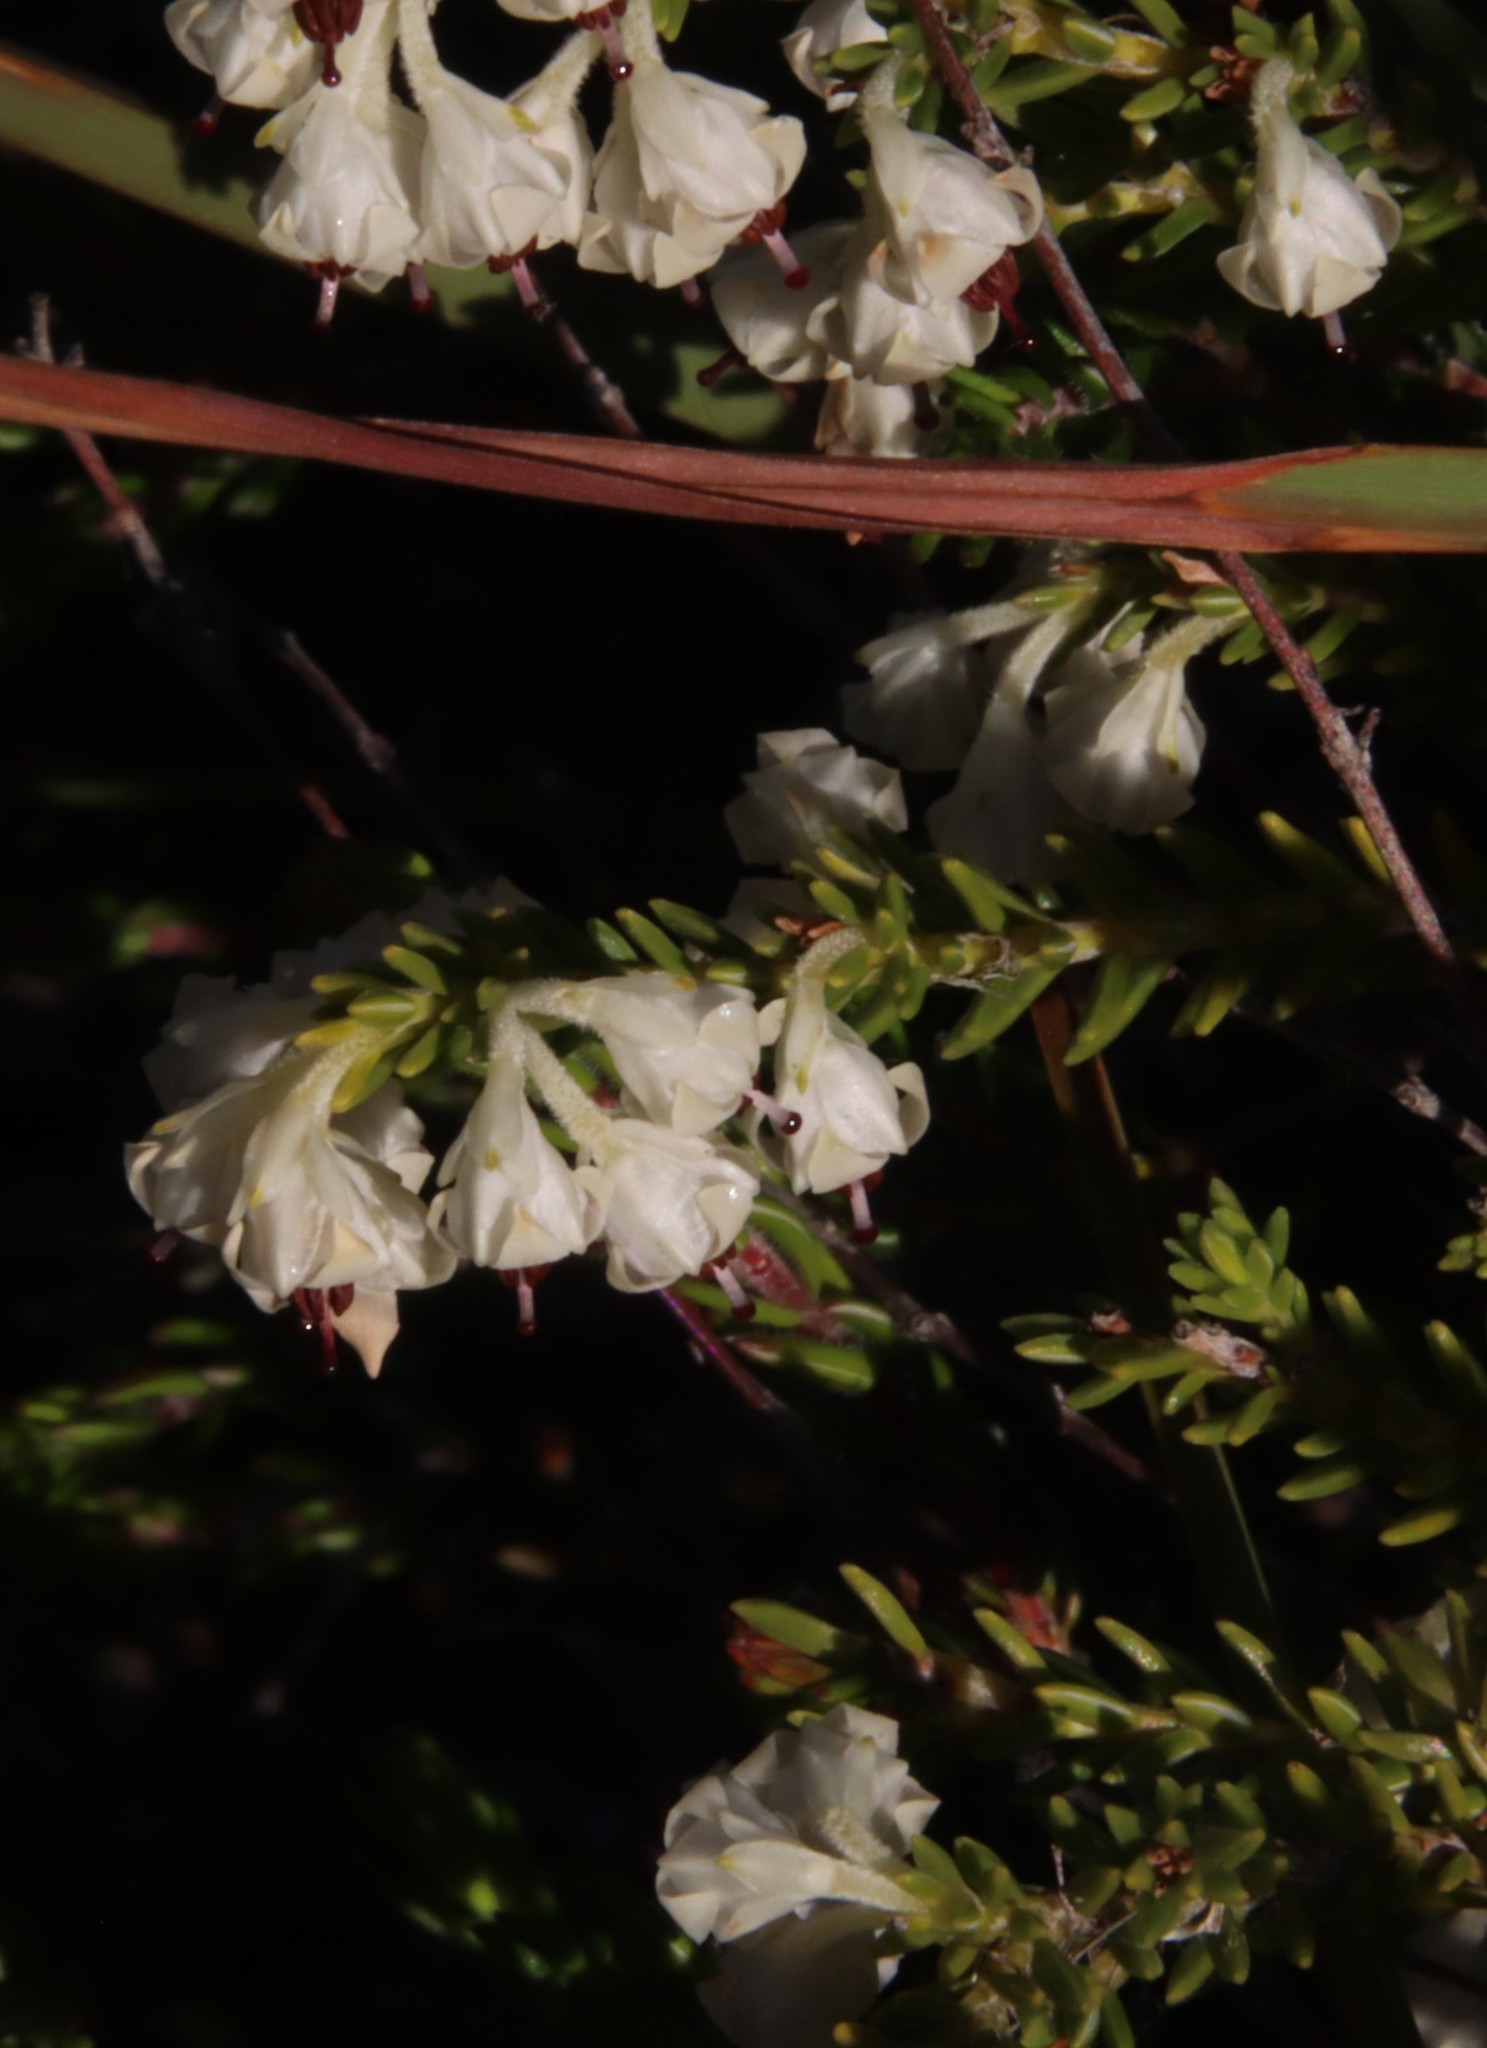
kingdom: Plantae
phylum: Tracheophyta
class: Magnoliopsida
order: Ericales
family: Ericaceae
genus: Erica
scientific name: Erica calycina
